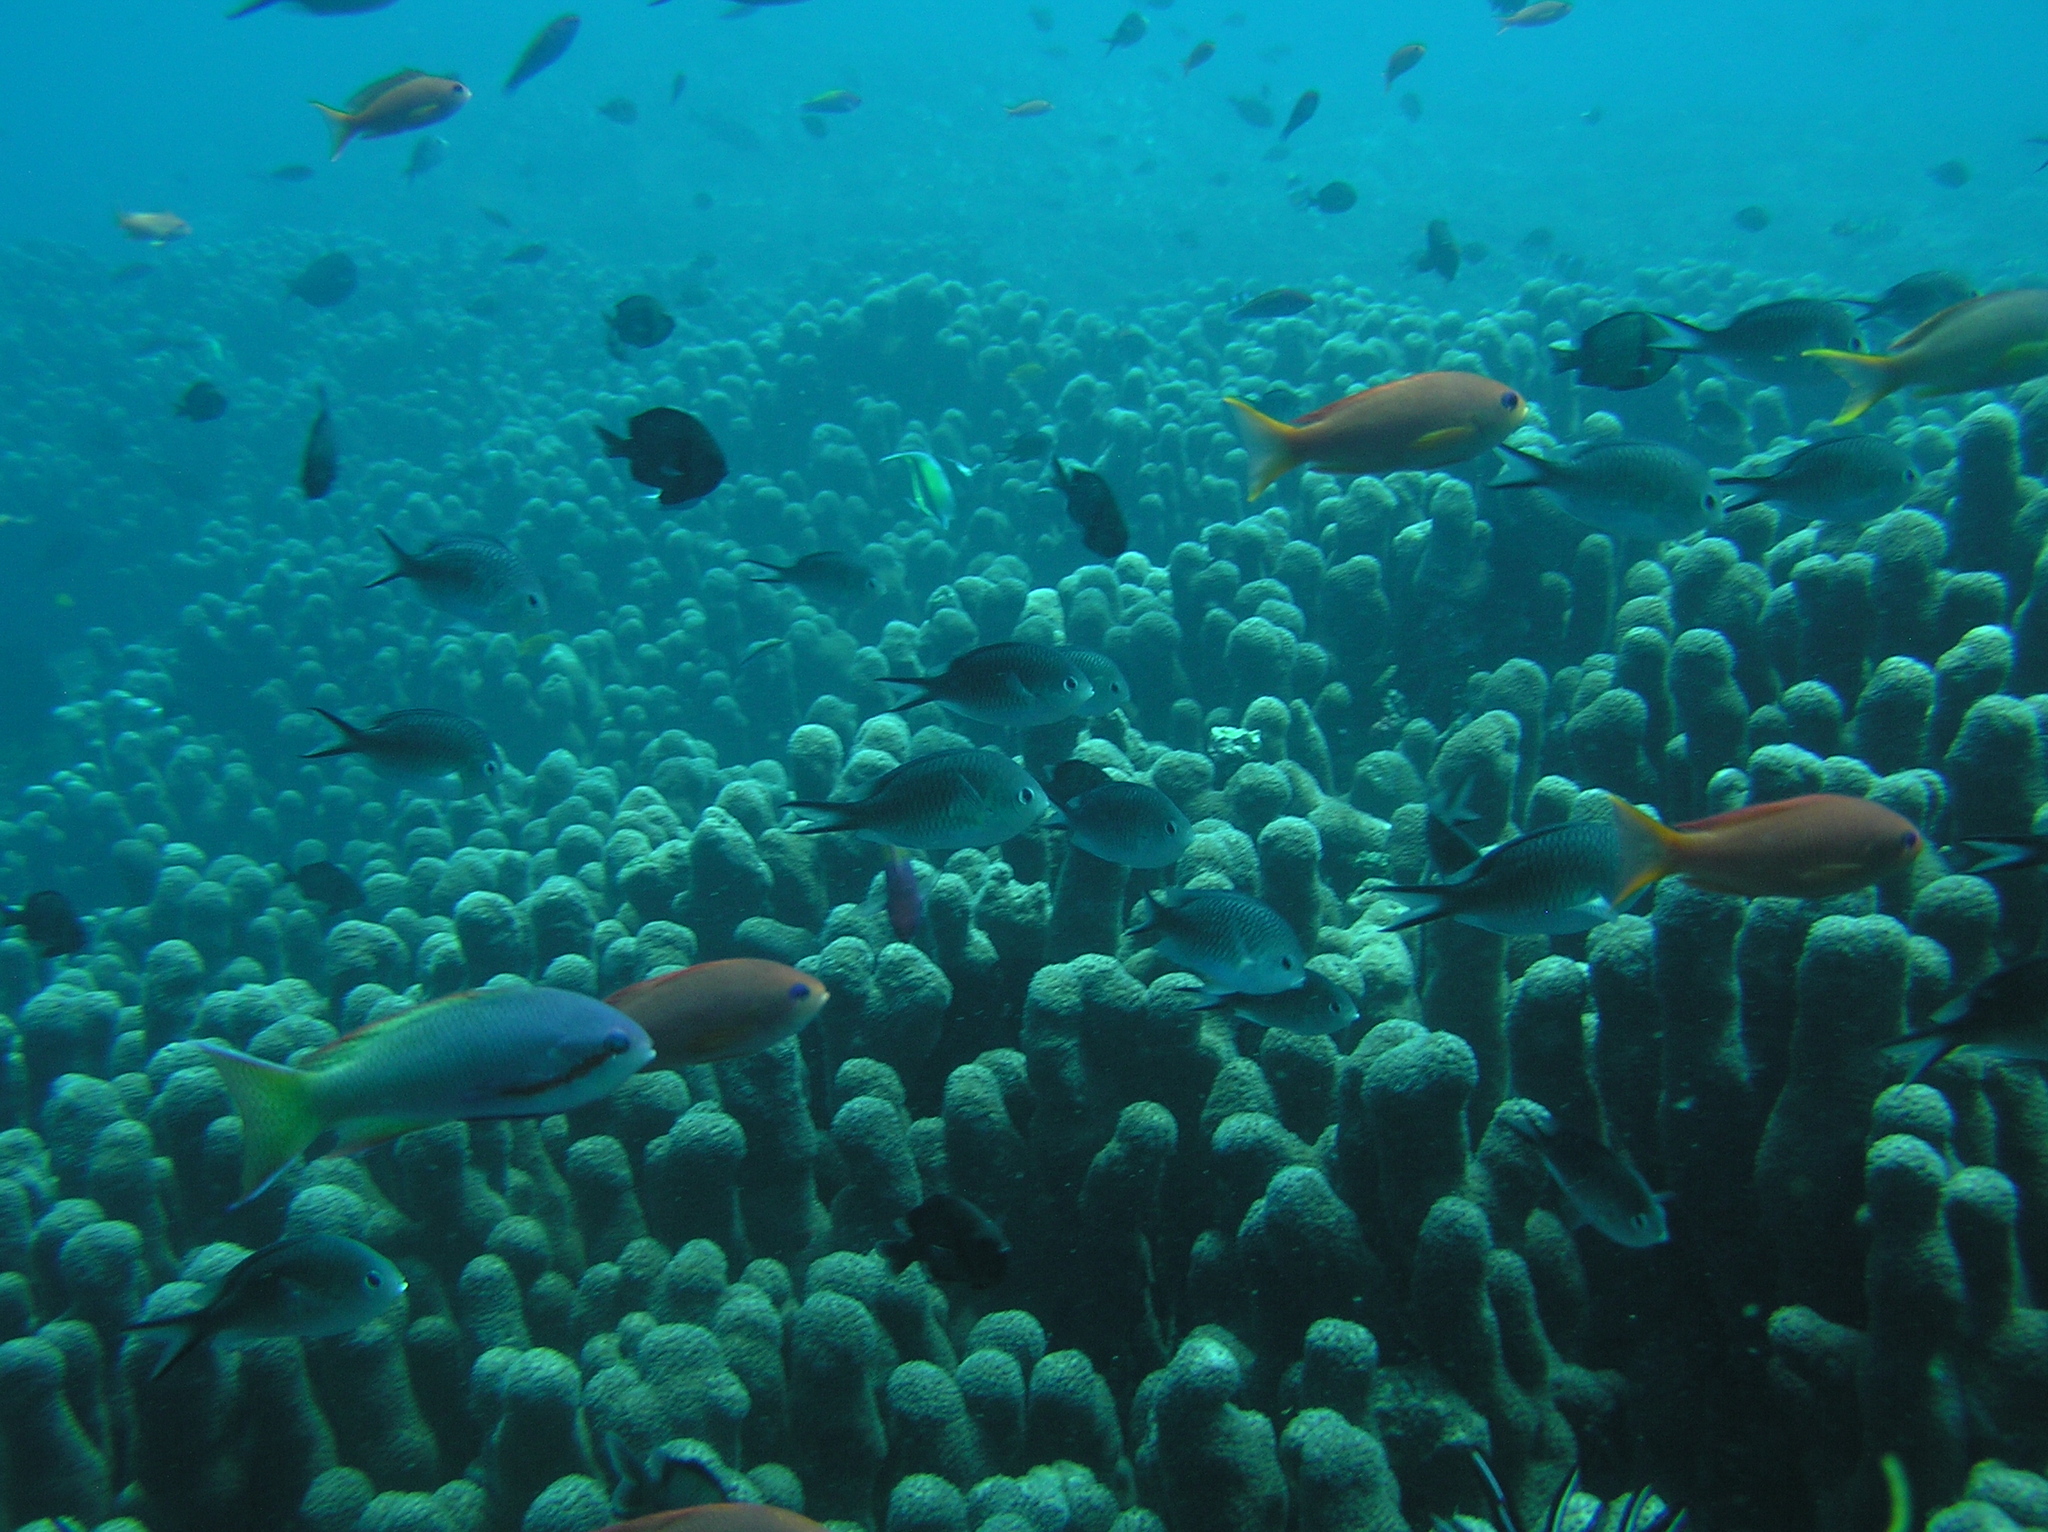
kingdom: Animalia
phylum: Chordata
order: Perciformes
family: Serranidae
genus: Pseudanthias
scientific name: Pseudanthias huchtii
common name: Pacific basslet
